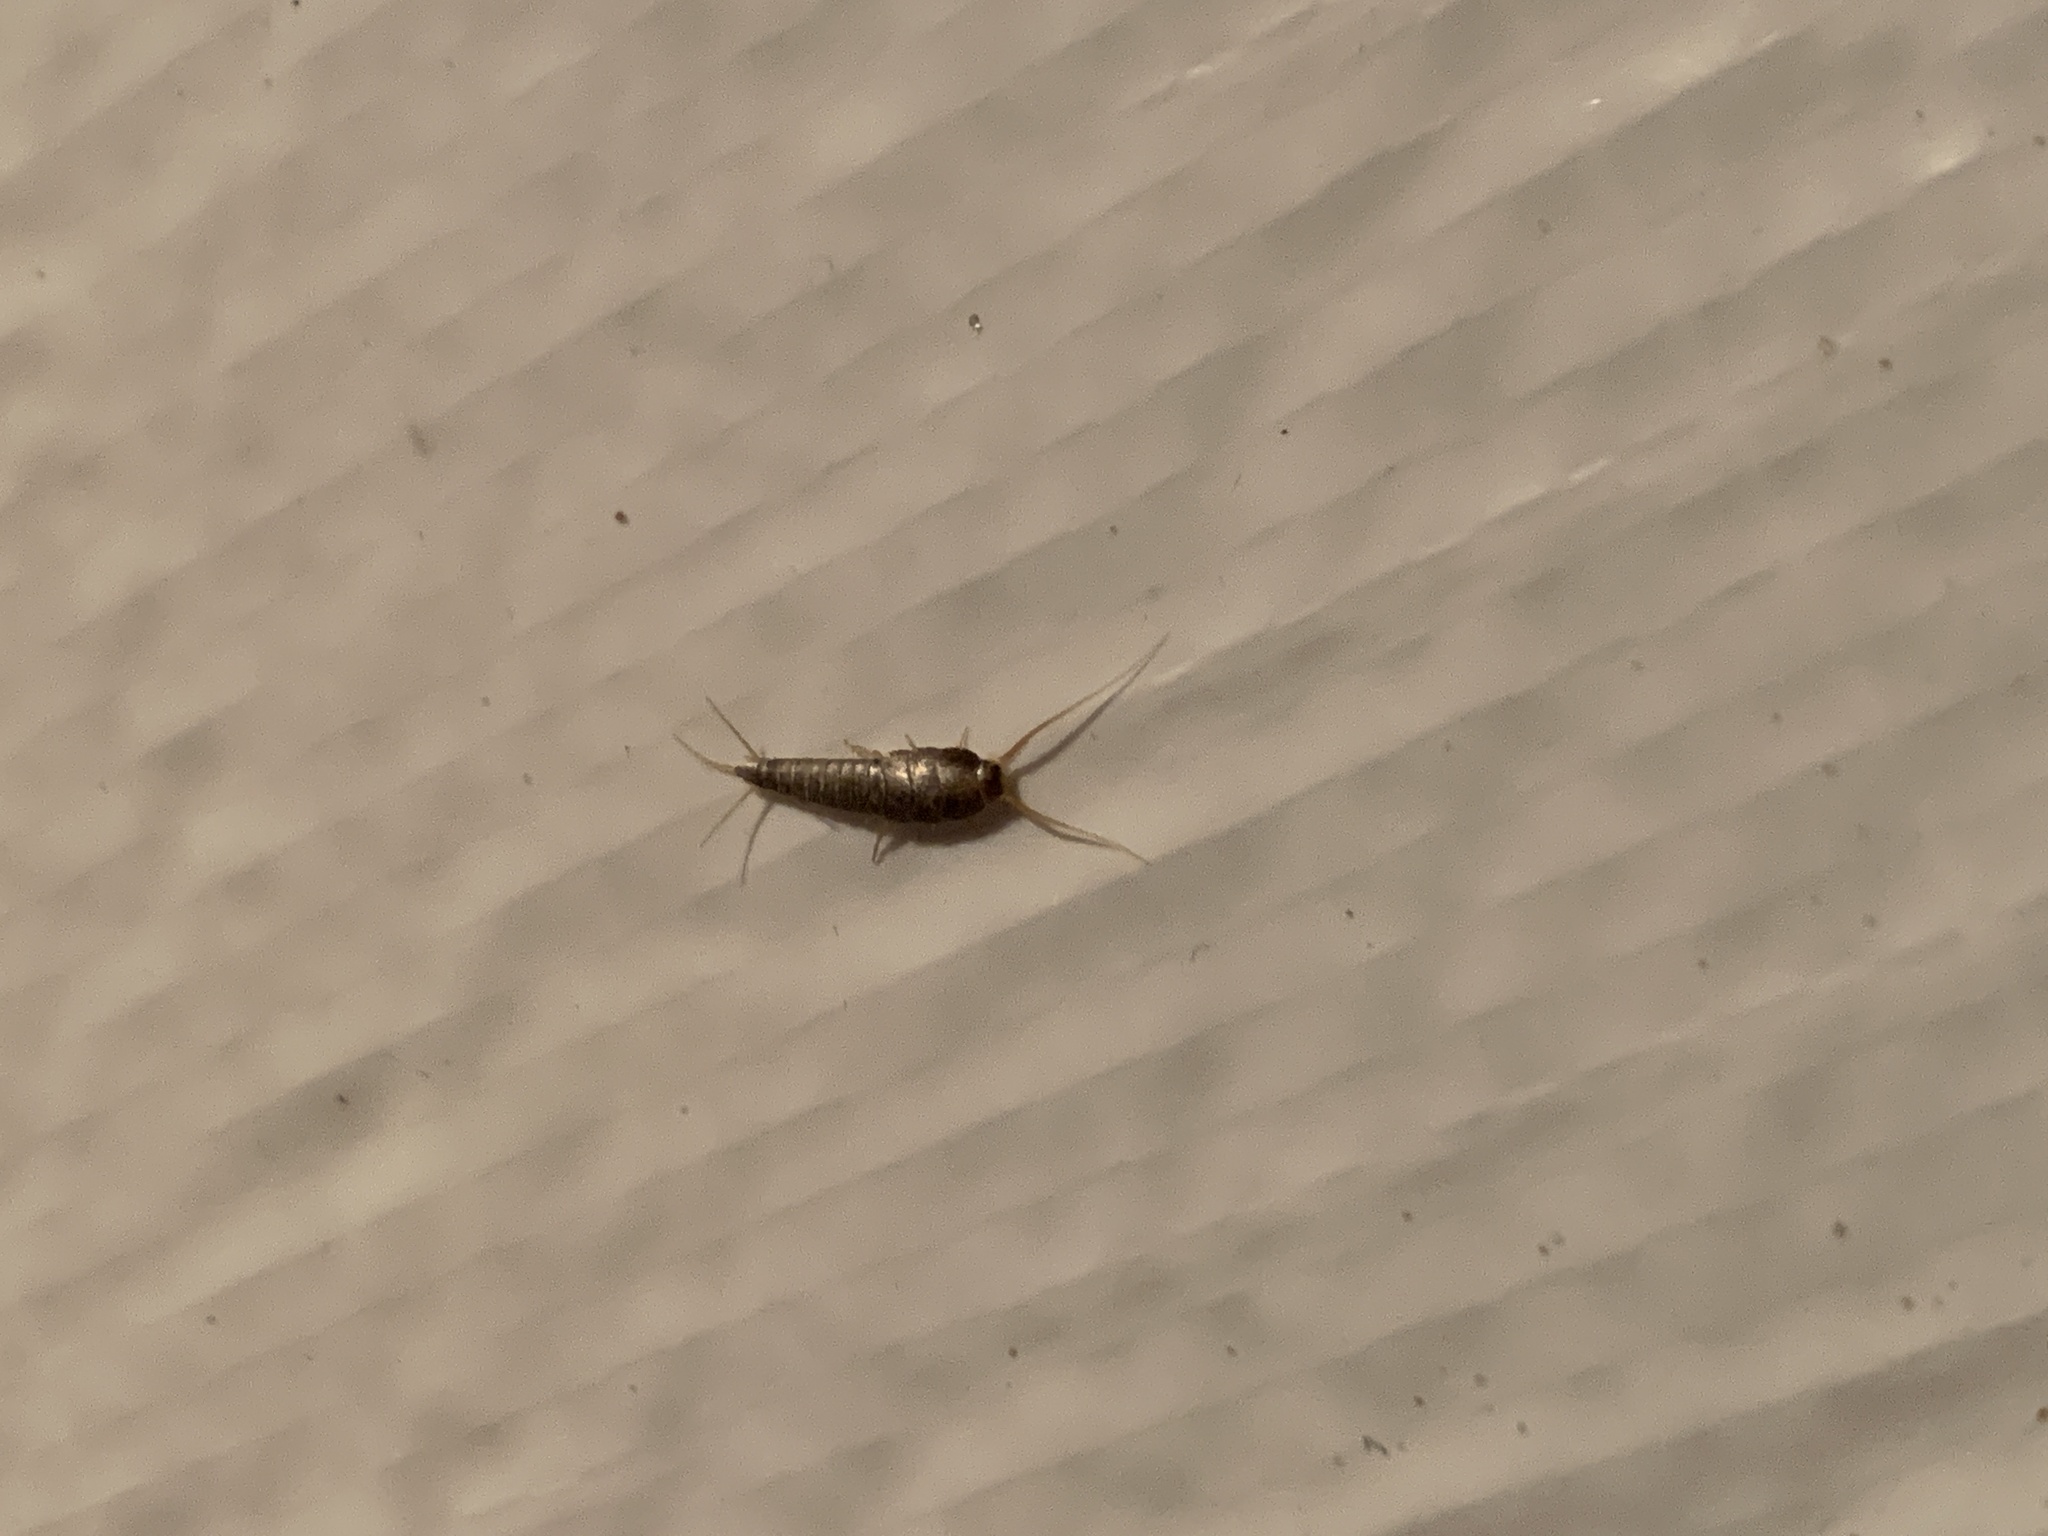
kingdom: Animalia
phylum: Arthropoda
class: Insecta
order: Zygentoma
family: Lepismatidae
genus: Lepisma
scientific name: Lepisma saccharinum
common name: Silverfish
